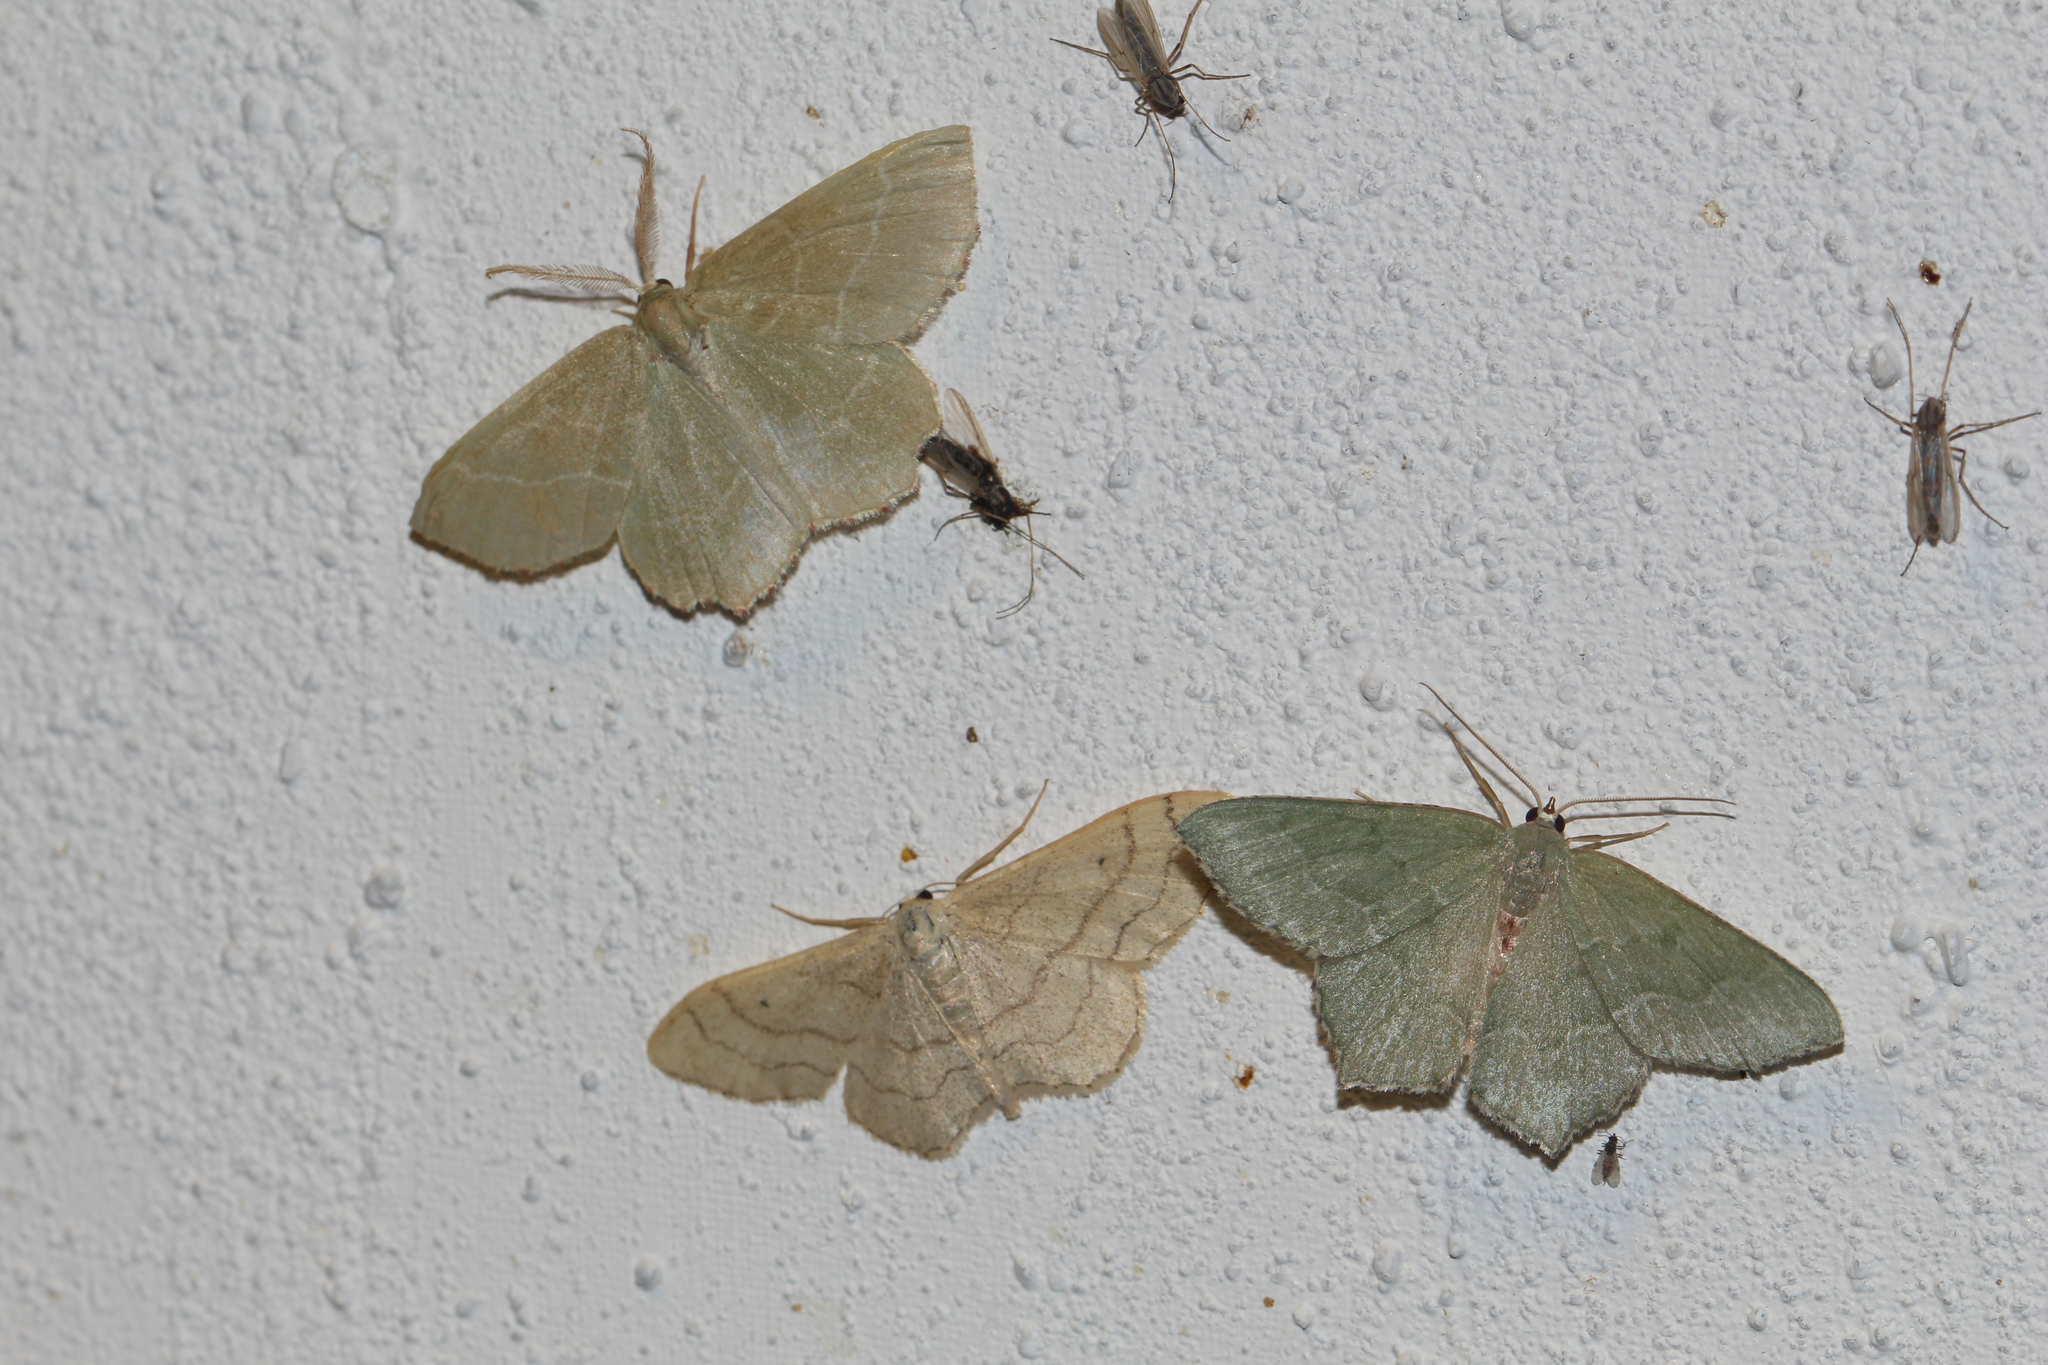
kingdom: Animalia
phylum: Arthropoda
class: Insecta
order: Lepidoptera
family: Geometridae
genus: Hemithea
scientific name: Hemithea aestivaria
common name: Common emerald
